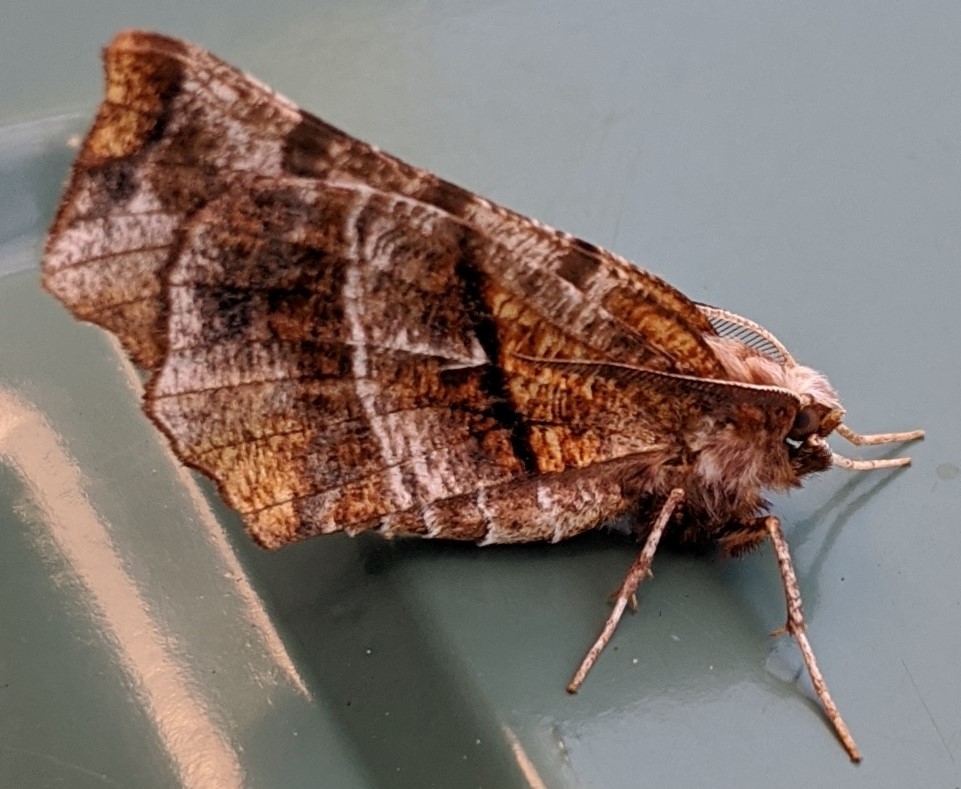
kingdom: Animalia
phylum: Arthropoda
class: Insecta
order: Lepidoptera
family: Geometridae
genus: Selenia
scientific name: Selenia alciphearia
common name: Brown-tipped thorn
